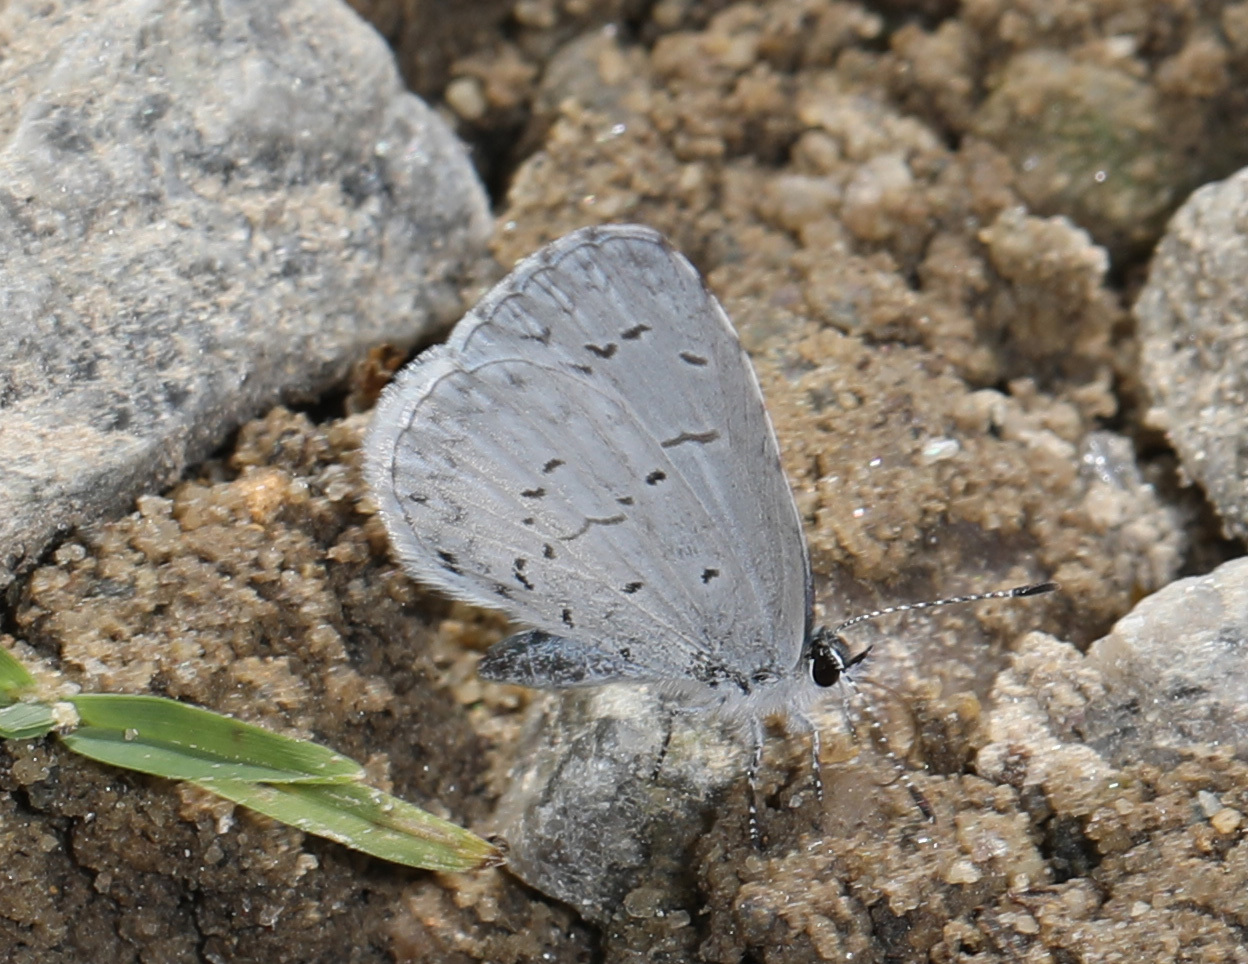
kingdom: Animalia
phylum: Arthropoda
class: Insecta
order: Lepidoptera
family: Lycaenidae
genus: Cyaniris
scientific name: Cyaniris neglecta
